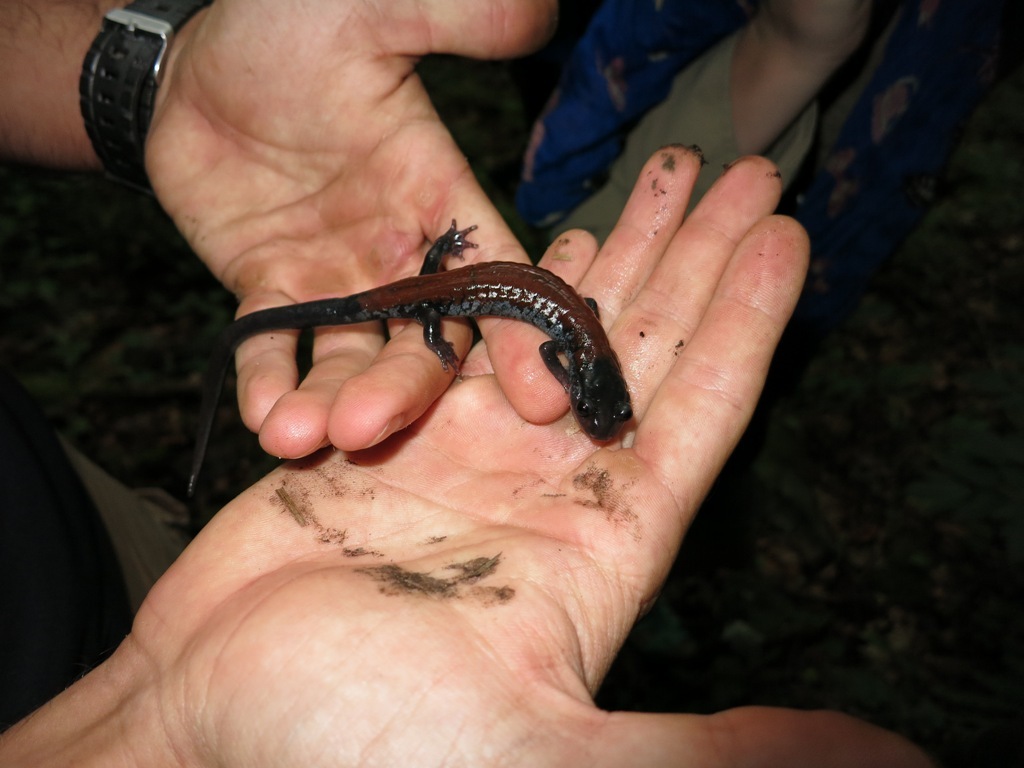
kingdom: Animalia
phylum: Chordata
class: Amphibia
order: Caudata
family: Plethodontidae
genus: Plethodon
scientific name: Plethodon yonahlossee
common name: Yonahlossee salamander
